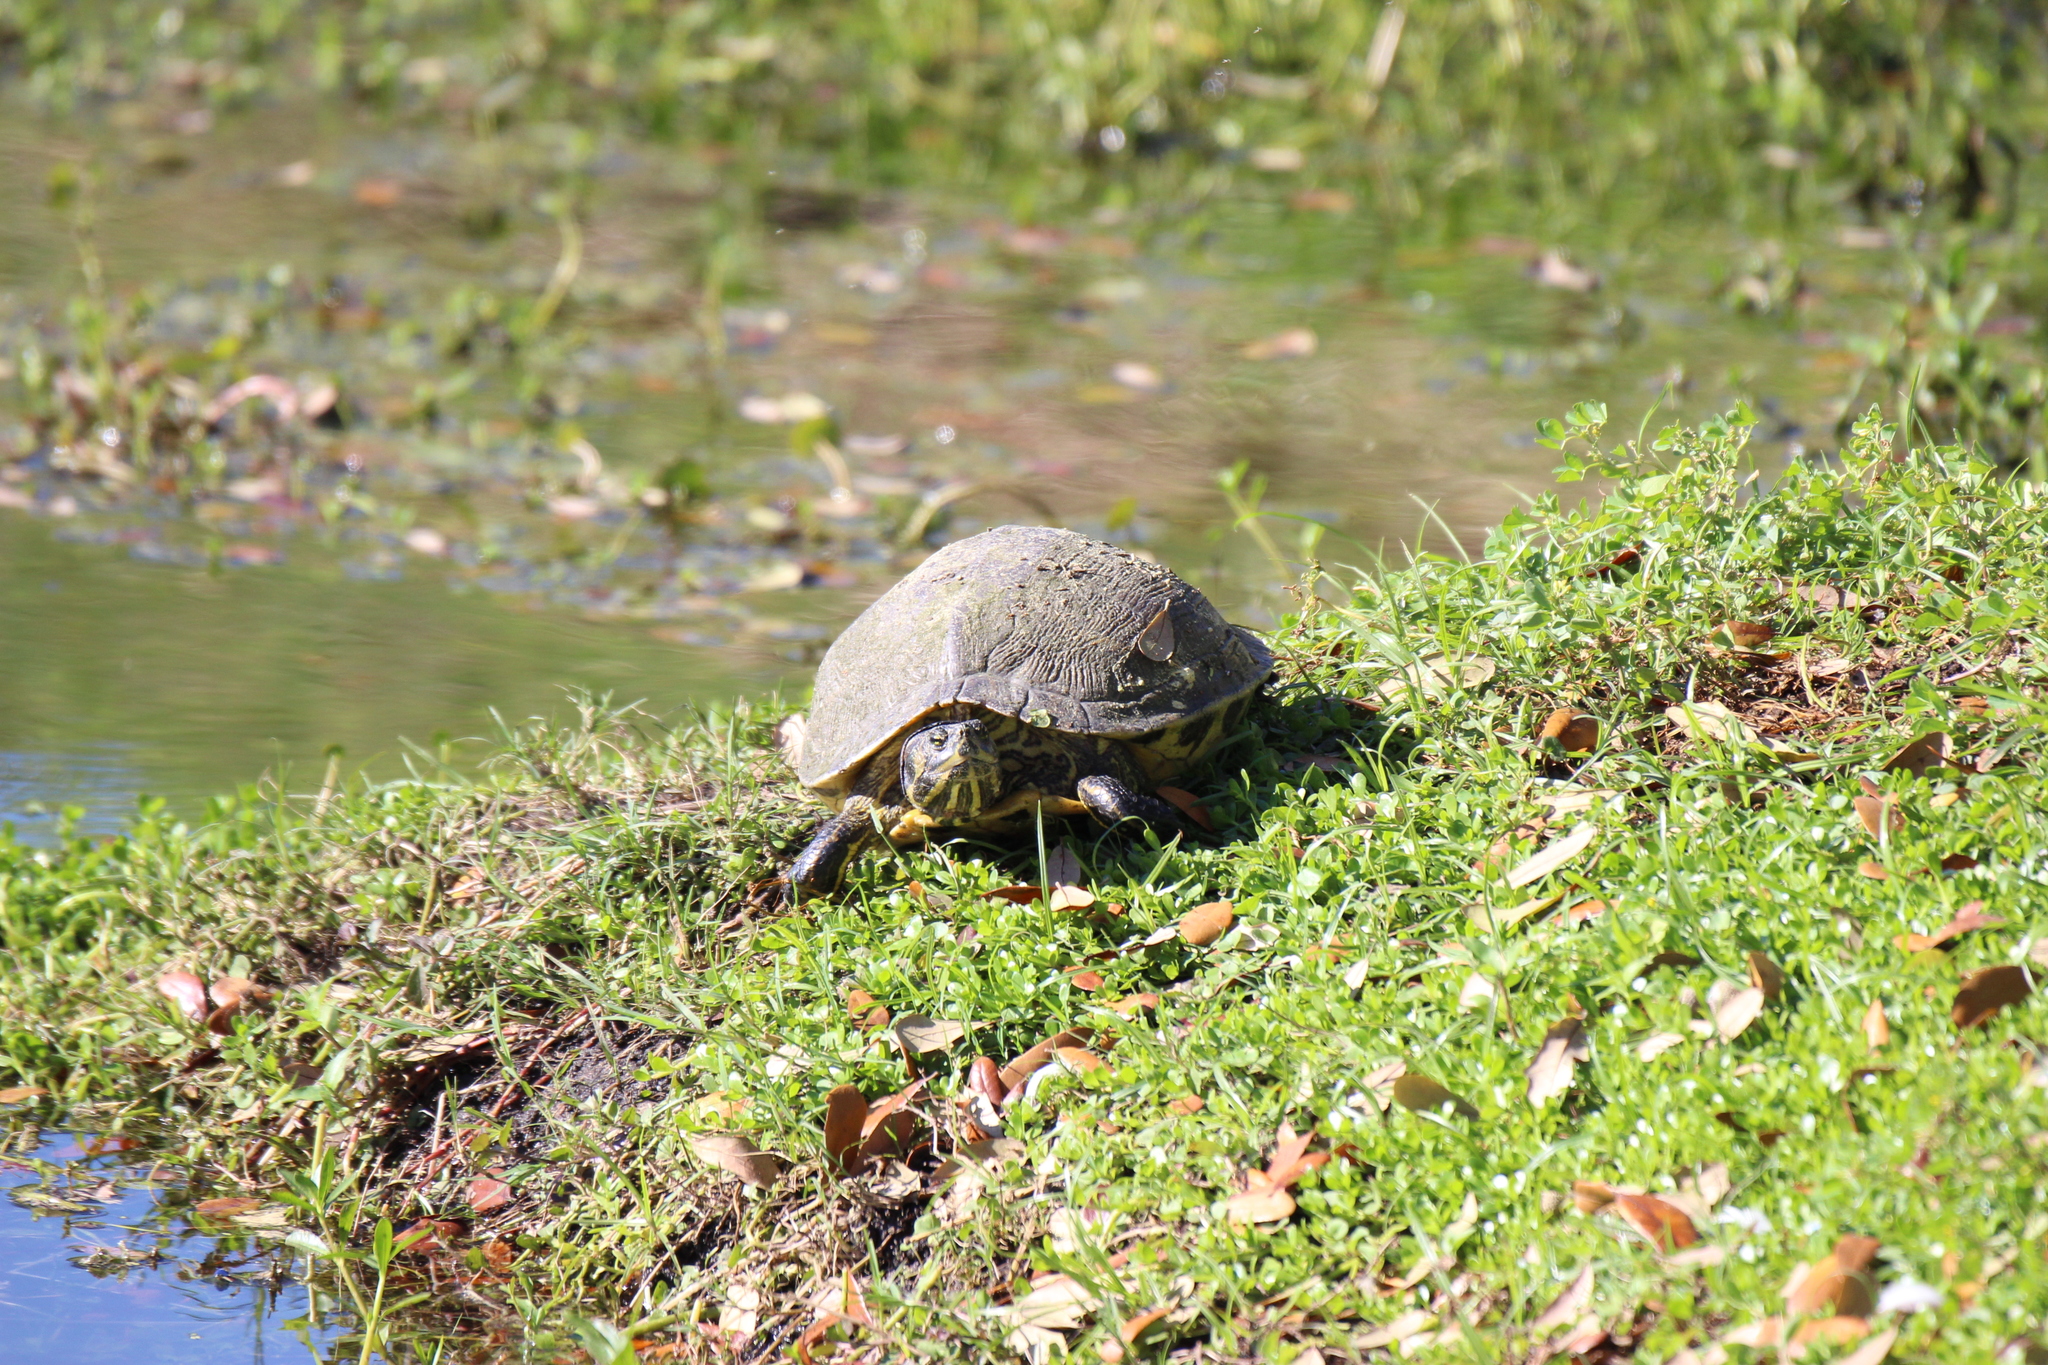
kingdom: Animalia
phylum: Chordata
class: Testudines
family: Emydidae
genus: Trachemys
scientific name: Trachemys scripta
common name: Slider
